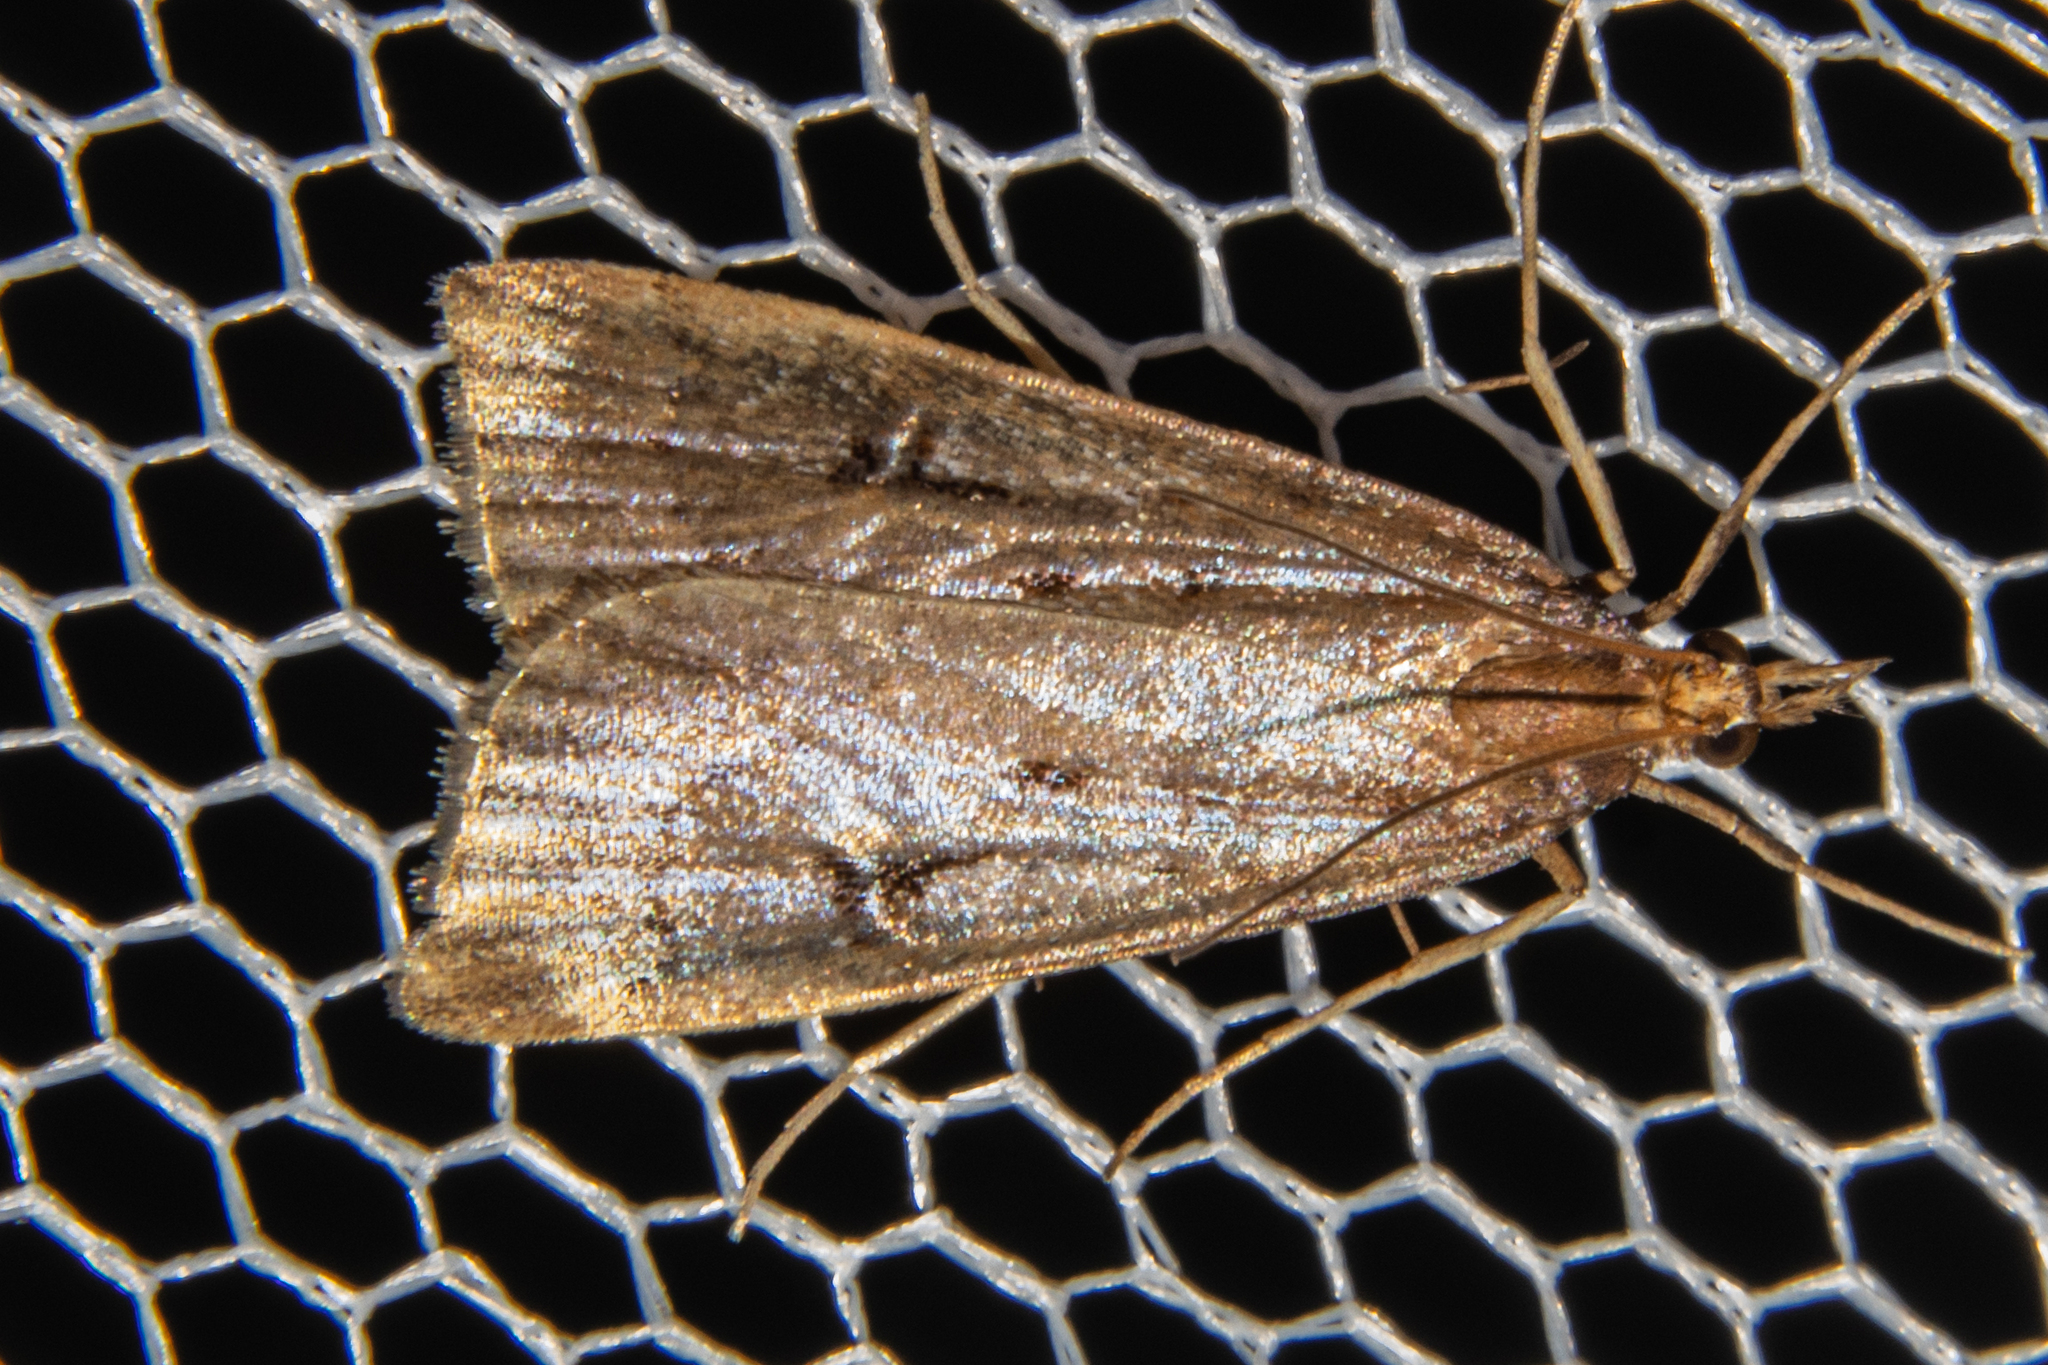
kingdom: Animalia
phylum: Arthropoda
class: Insecta
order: Lepidoptera
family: Crambidae
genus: Scoparia
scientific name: Scoparia fumata
